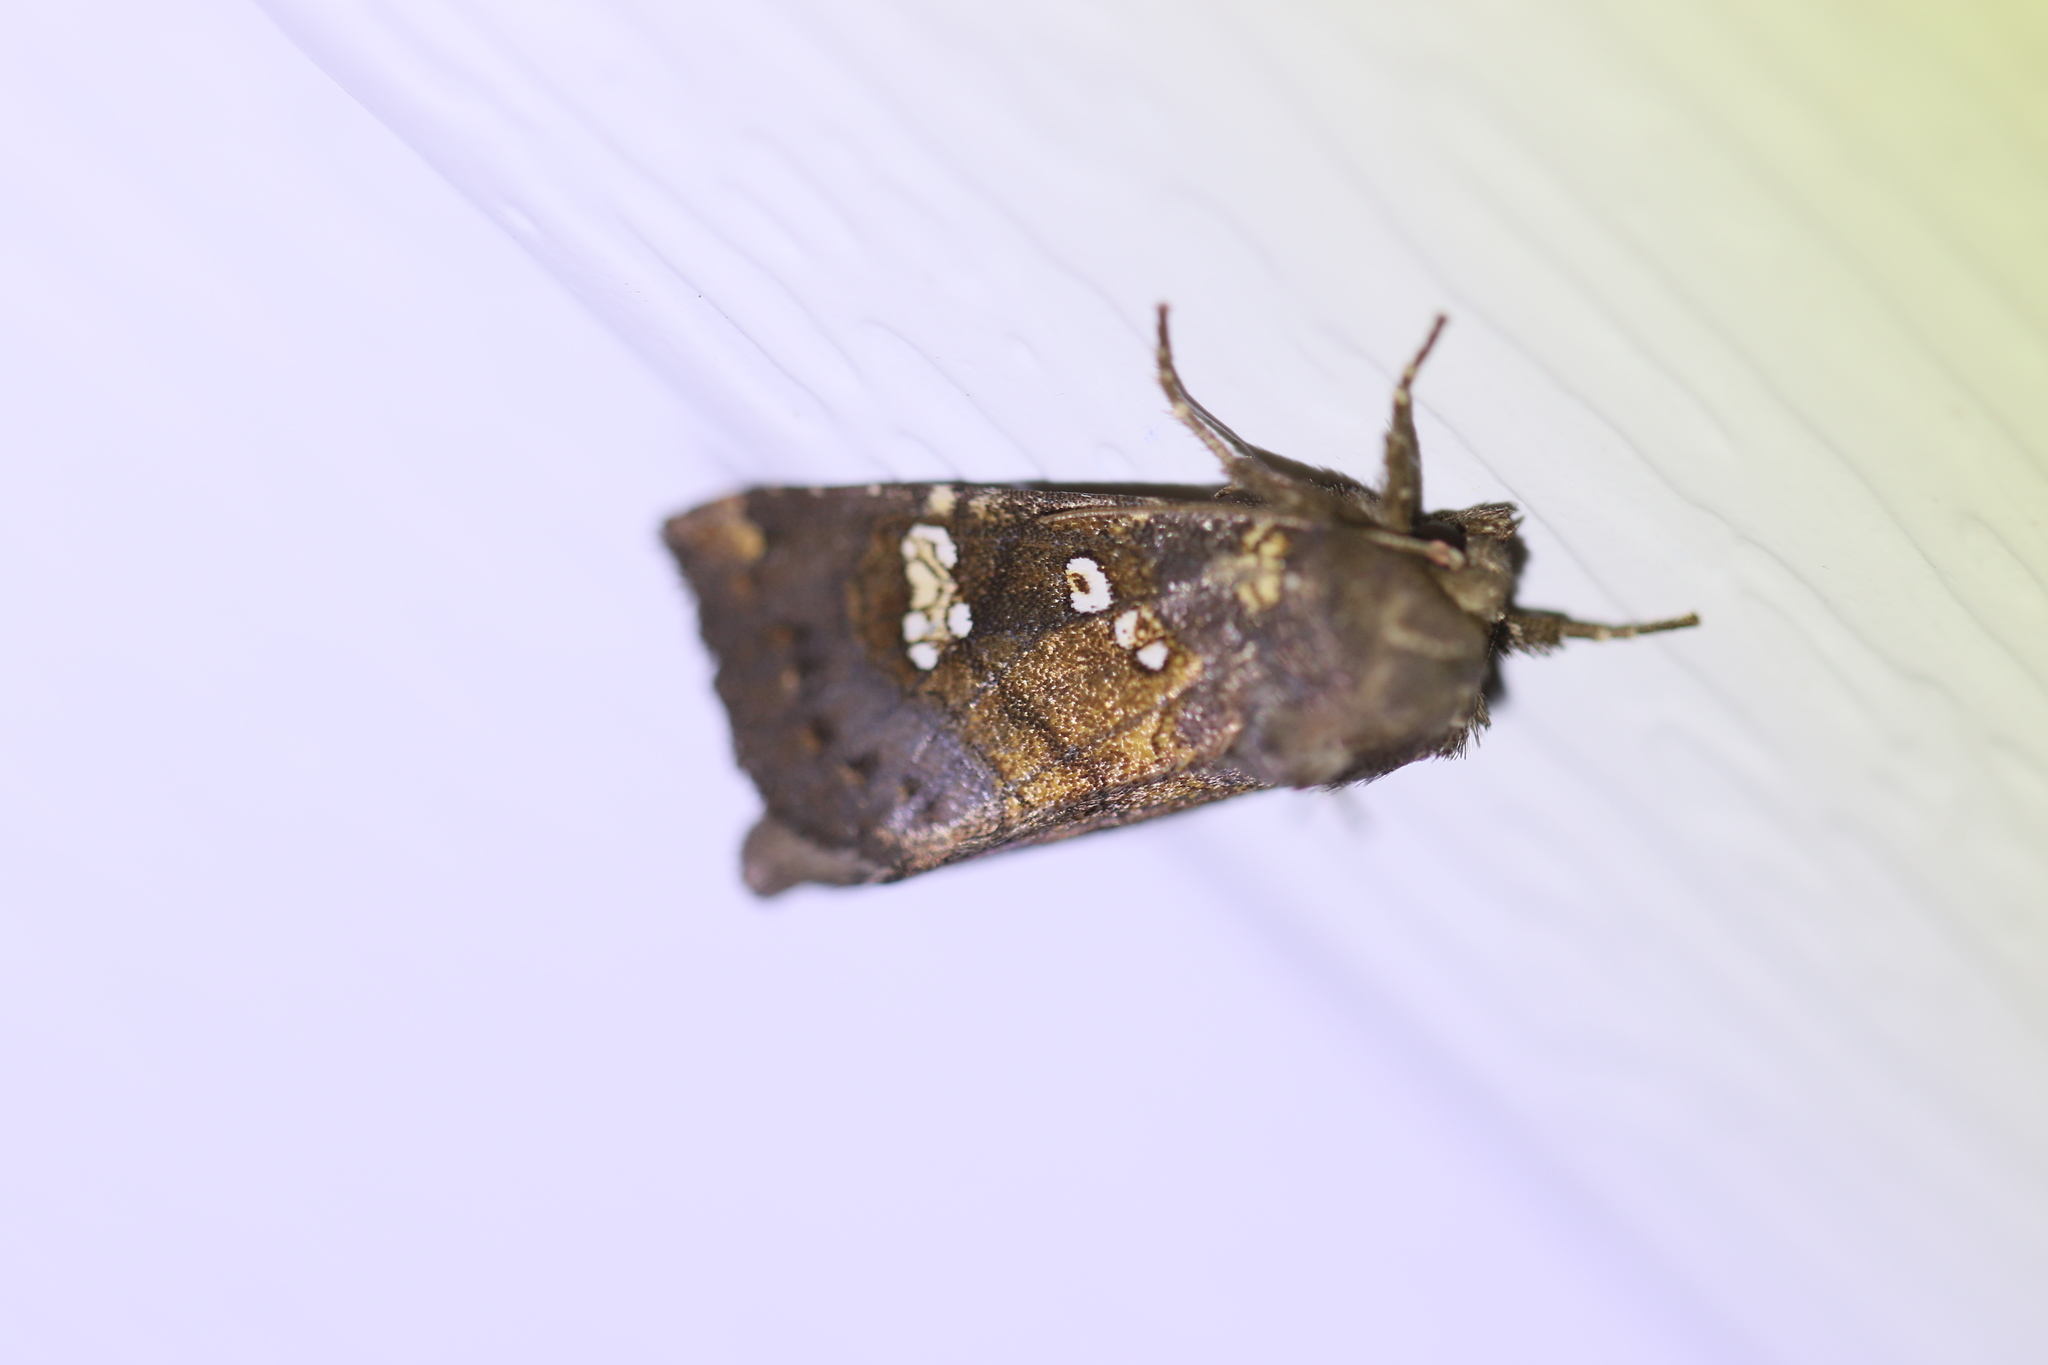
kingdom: Animalia
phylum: Arthropoda
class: Insecta
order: Lepidoptera
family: Noctuidae
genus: Papaipema
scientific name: Papaipema unimoda
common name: Meadow rue borer moth
